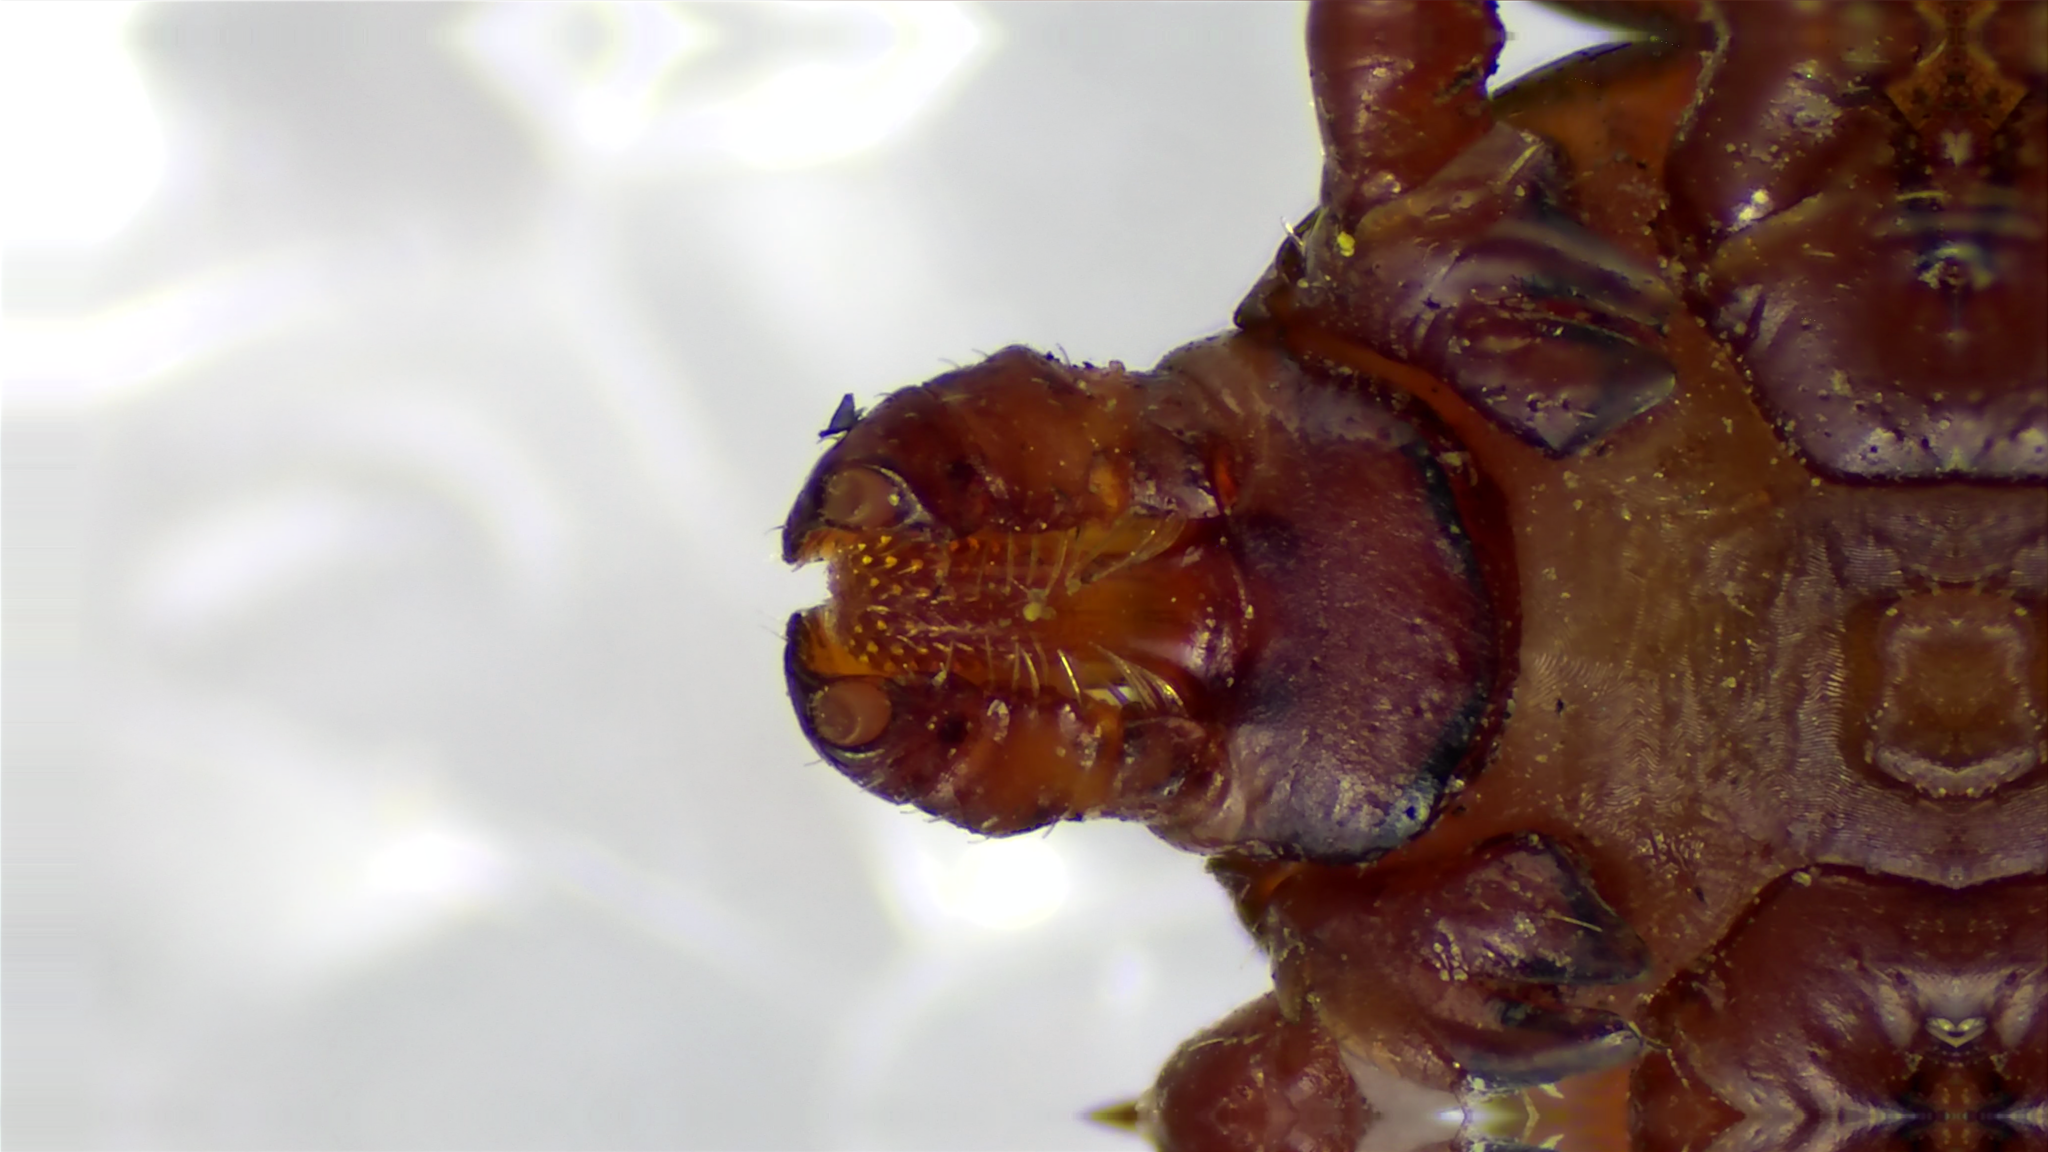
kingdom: Animalia
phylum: Arthropoda
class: Arachnida
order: Ixodida
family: Ixodidae
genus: Dermacentor
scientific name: Dermacentor variabilis
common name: American dog tick
